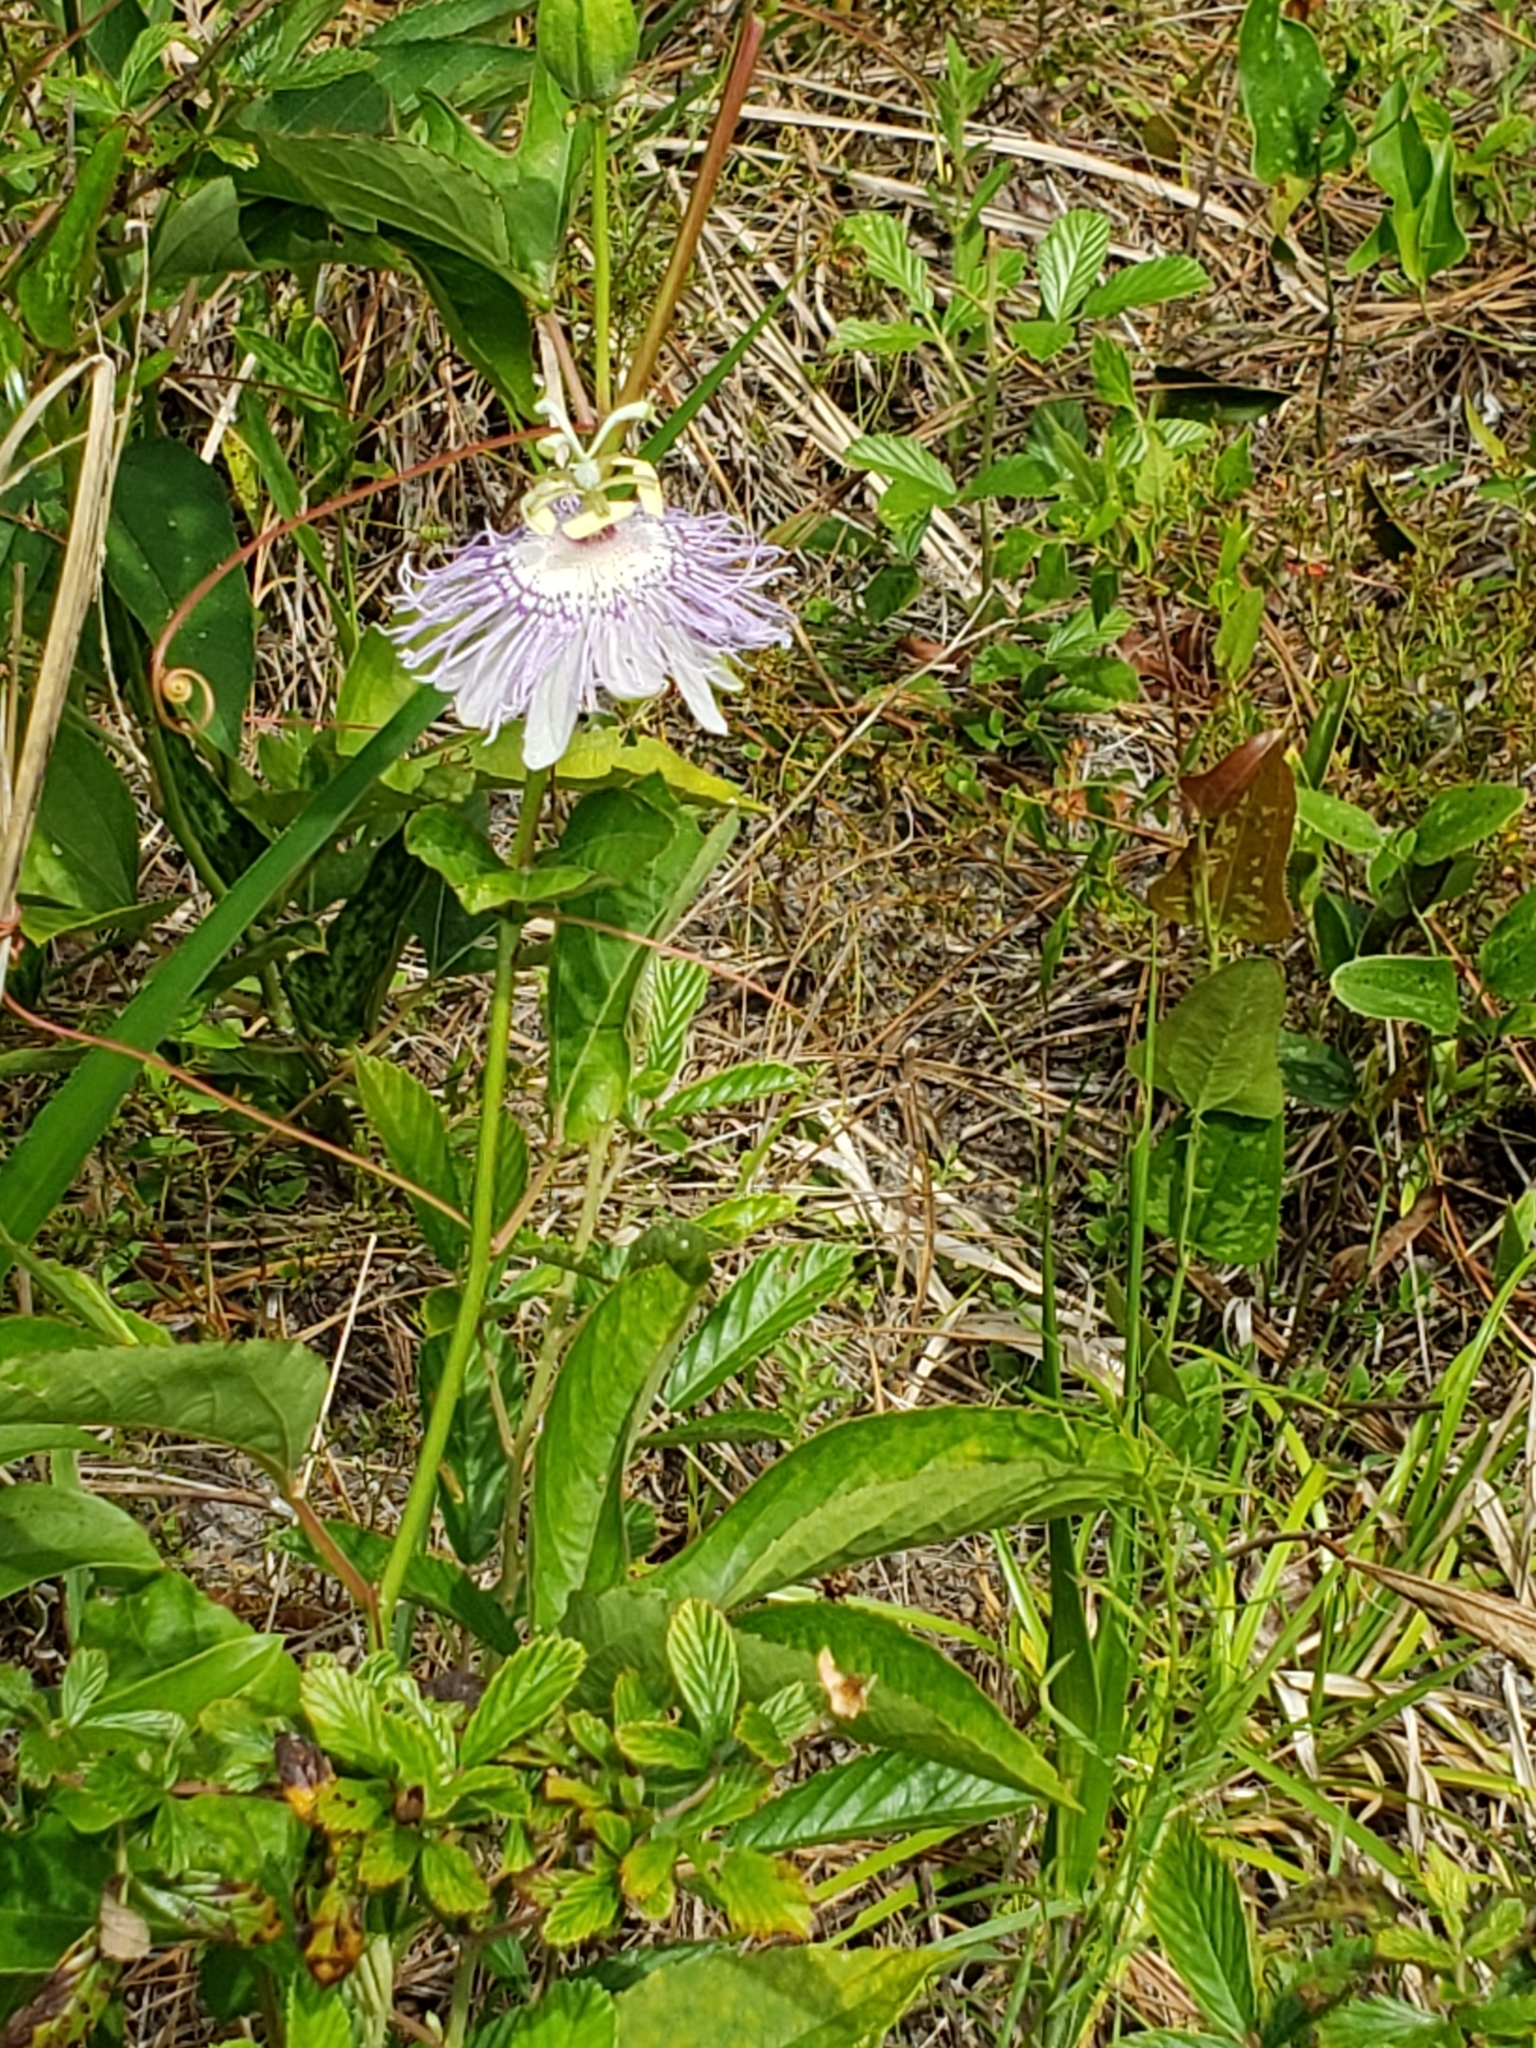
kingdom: Plantae
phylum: Tracheophyta
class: Magnoliopsida
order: Malpighiales
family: Passifloraceae
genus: Passiflora
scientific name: Passiflora incarnata
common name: Apricot-vine
